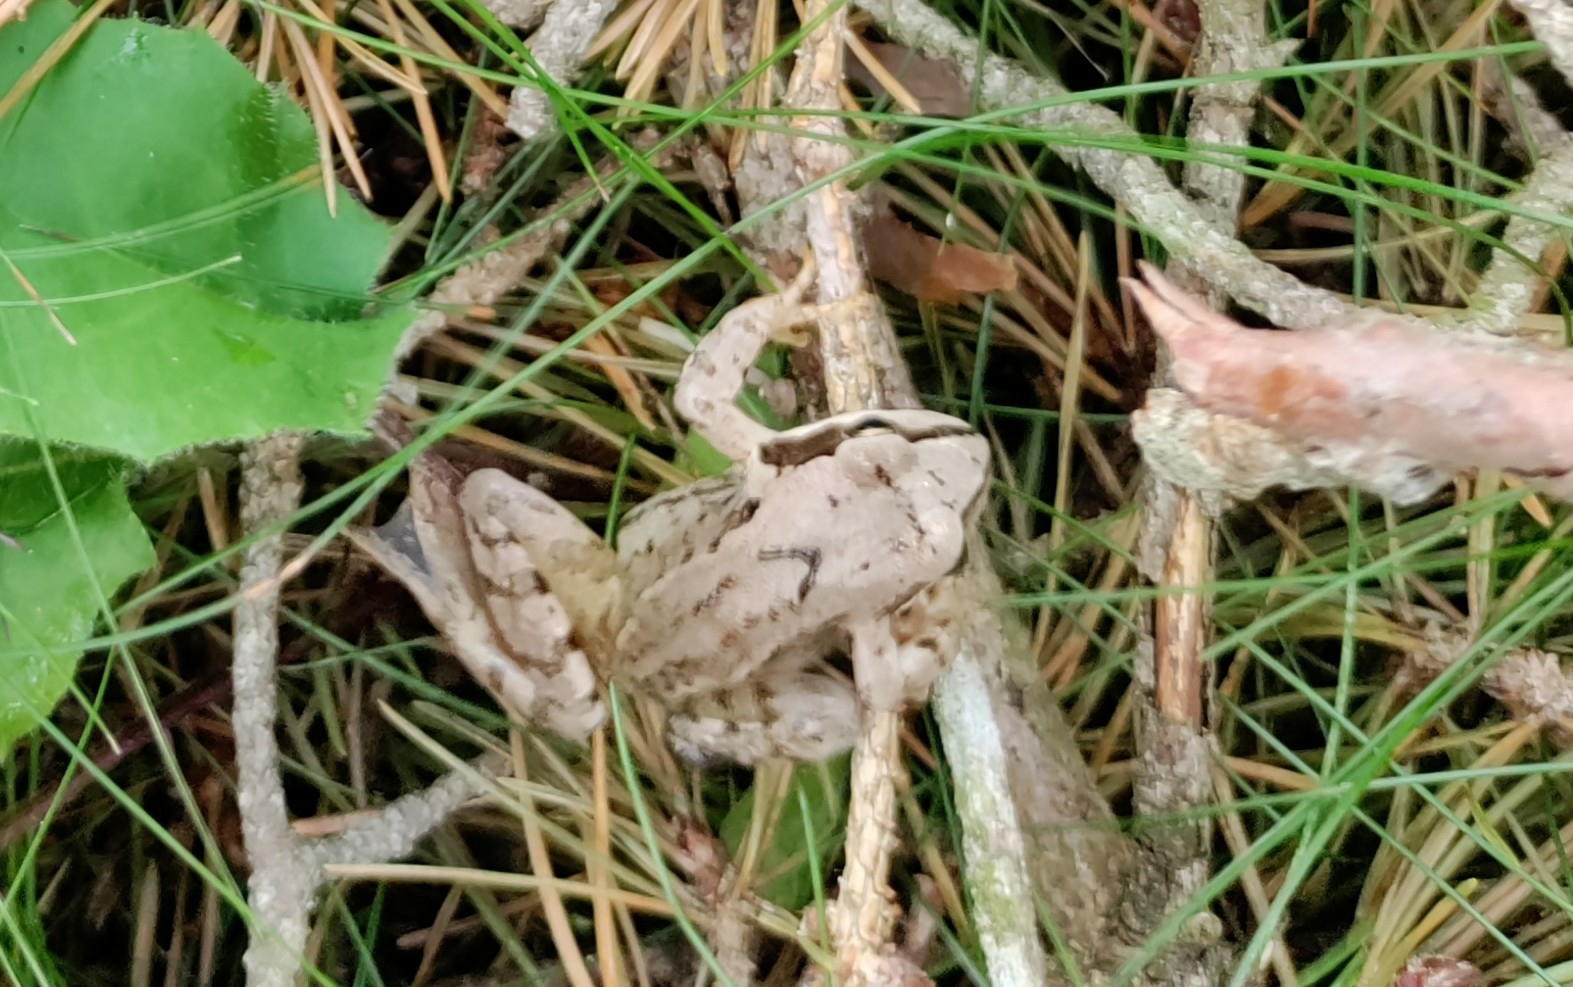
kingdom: Animalia
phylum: Chordata
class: Amphibia
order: Anura
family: Ranidae
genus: Rana
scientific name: Rana temporaria
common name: Common frog
